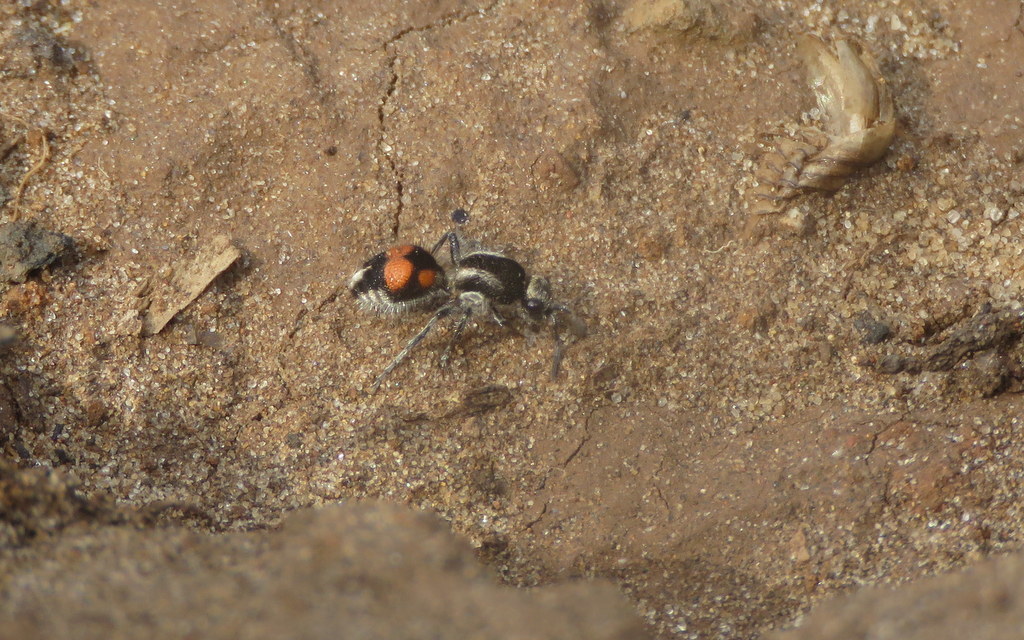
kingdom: Animalia
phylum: Arthropoda
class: Insecta
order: Hymenoptera
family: Mutillidae
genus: Traumatomutilla
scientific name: Traumatomutilla ocellaris
